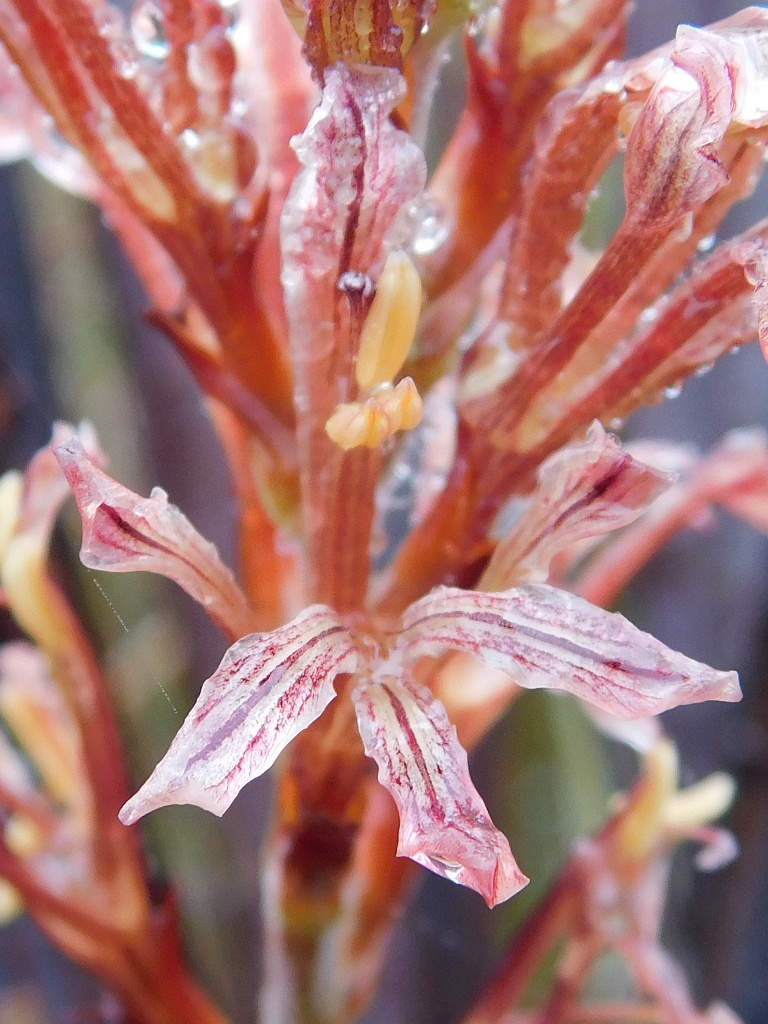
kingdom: Plantae
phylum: Tracheophyta
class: Liliopsida
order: Asparagales
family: Iridaceae
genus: Tritoniopsis
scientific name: Tritoniopsis elongata
